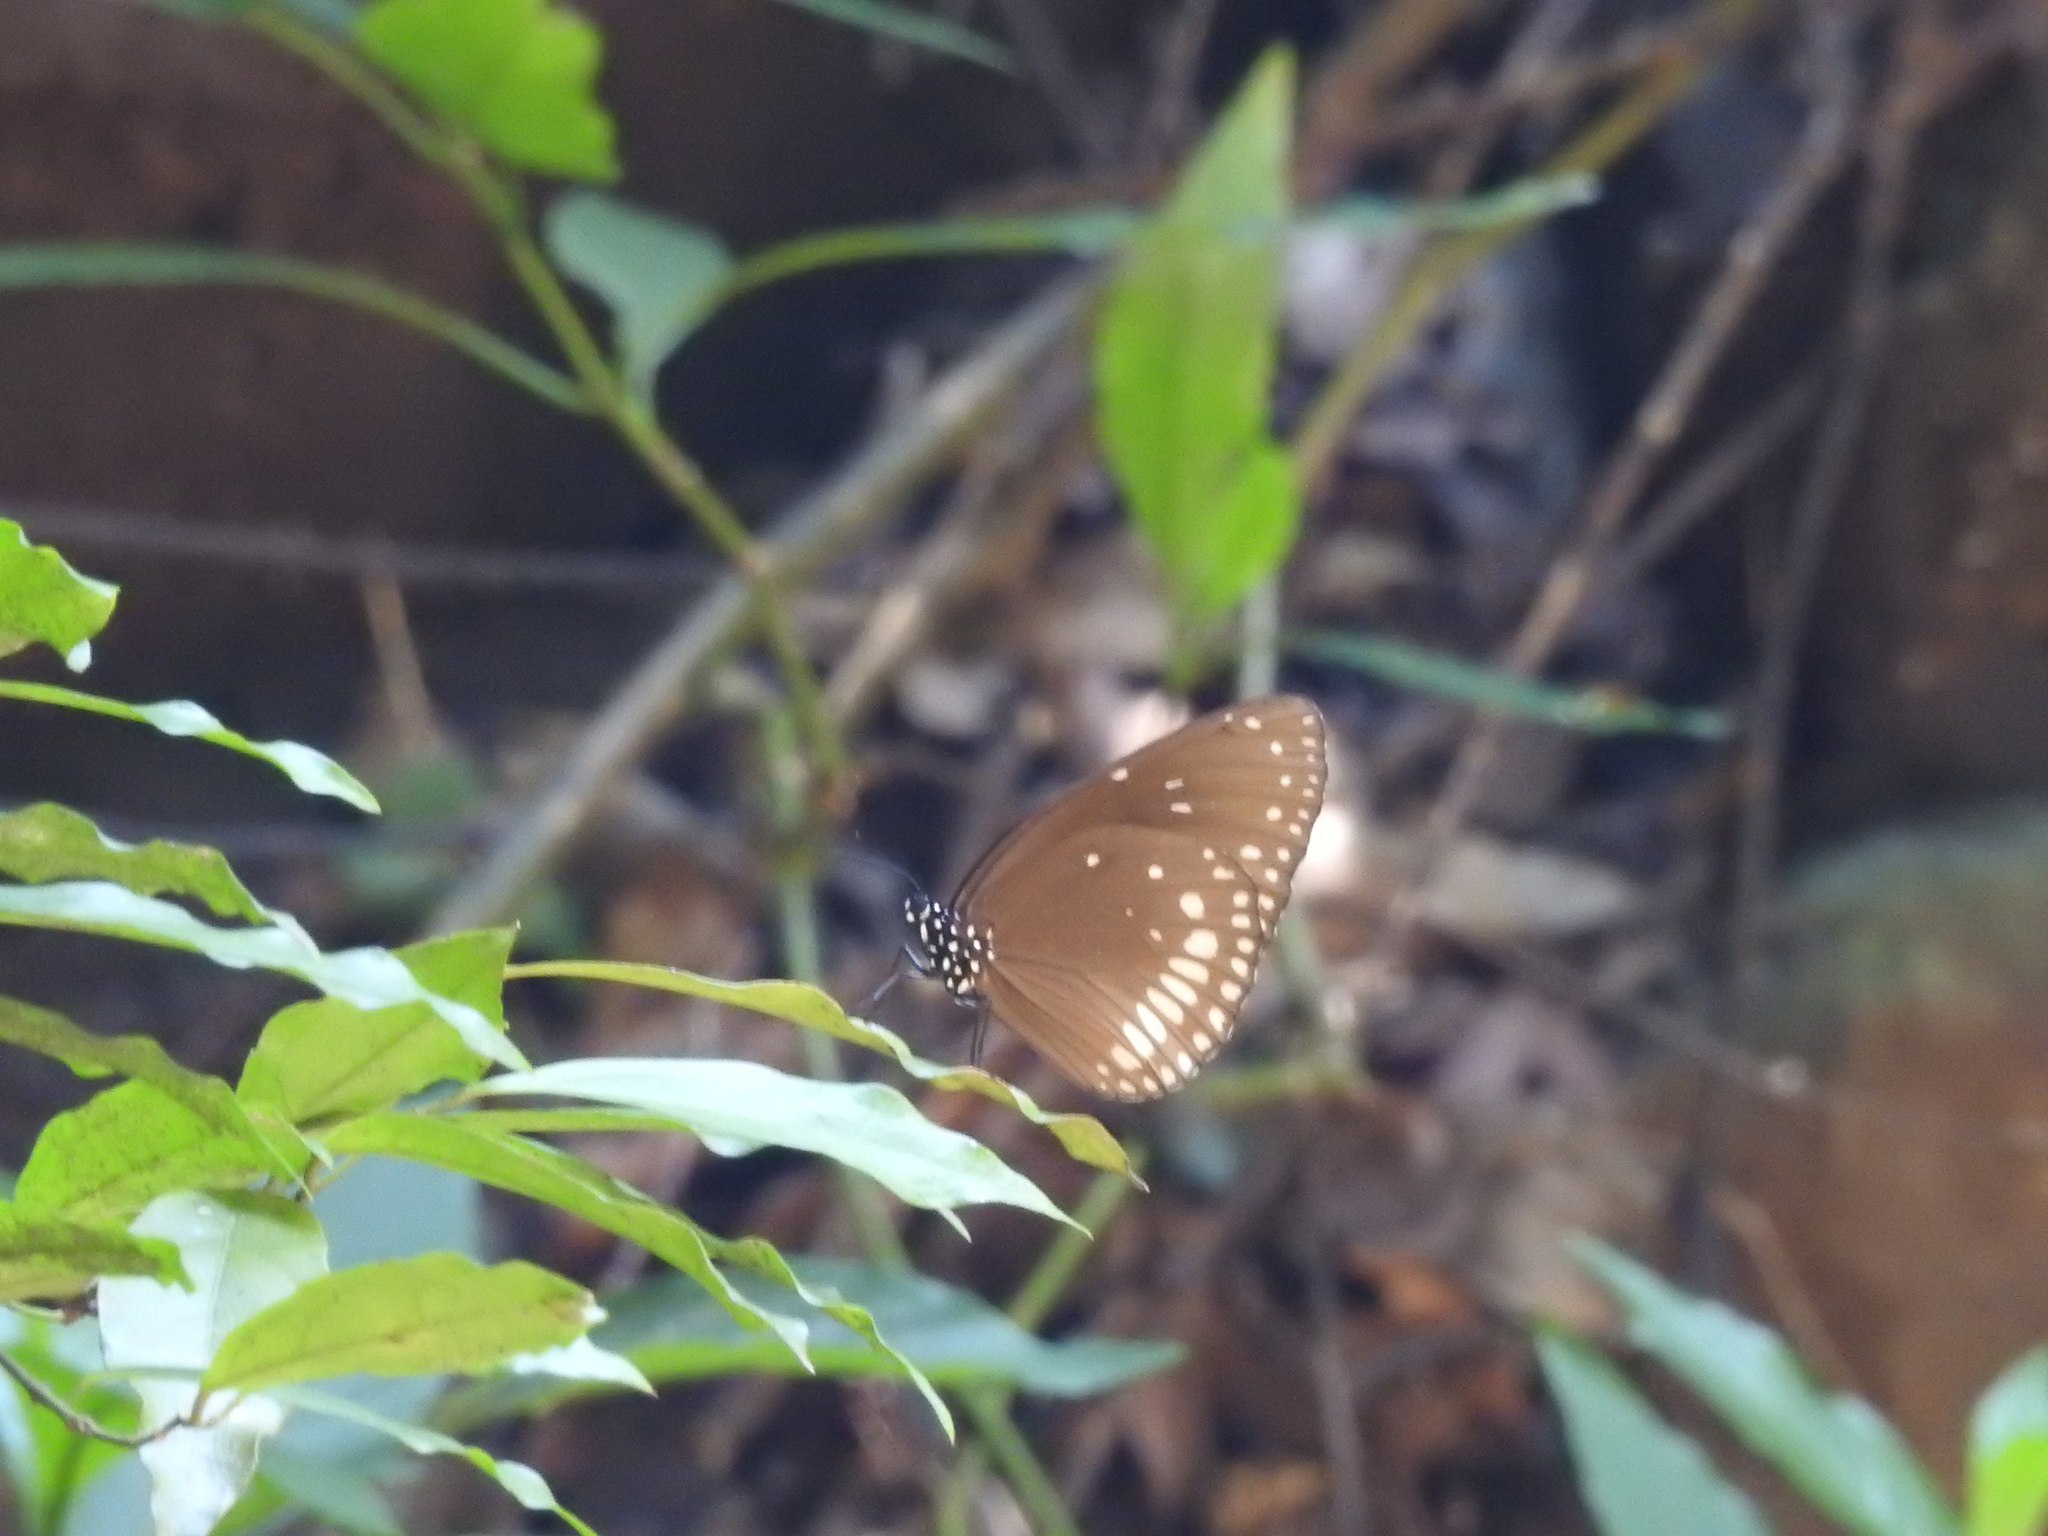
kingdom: Animalia
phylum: Arthropoda
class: Insecta
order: Lepidoptera
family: Nymphalidae
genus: Euploea
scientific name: Euploea core
